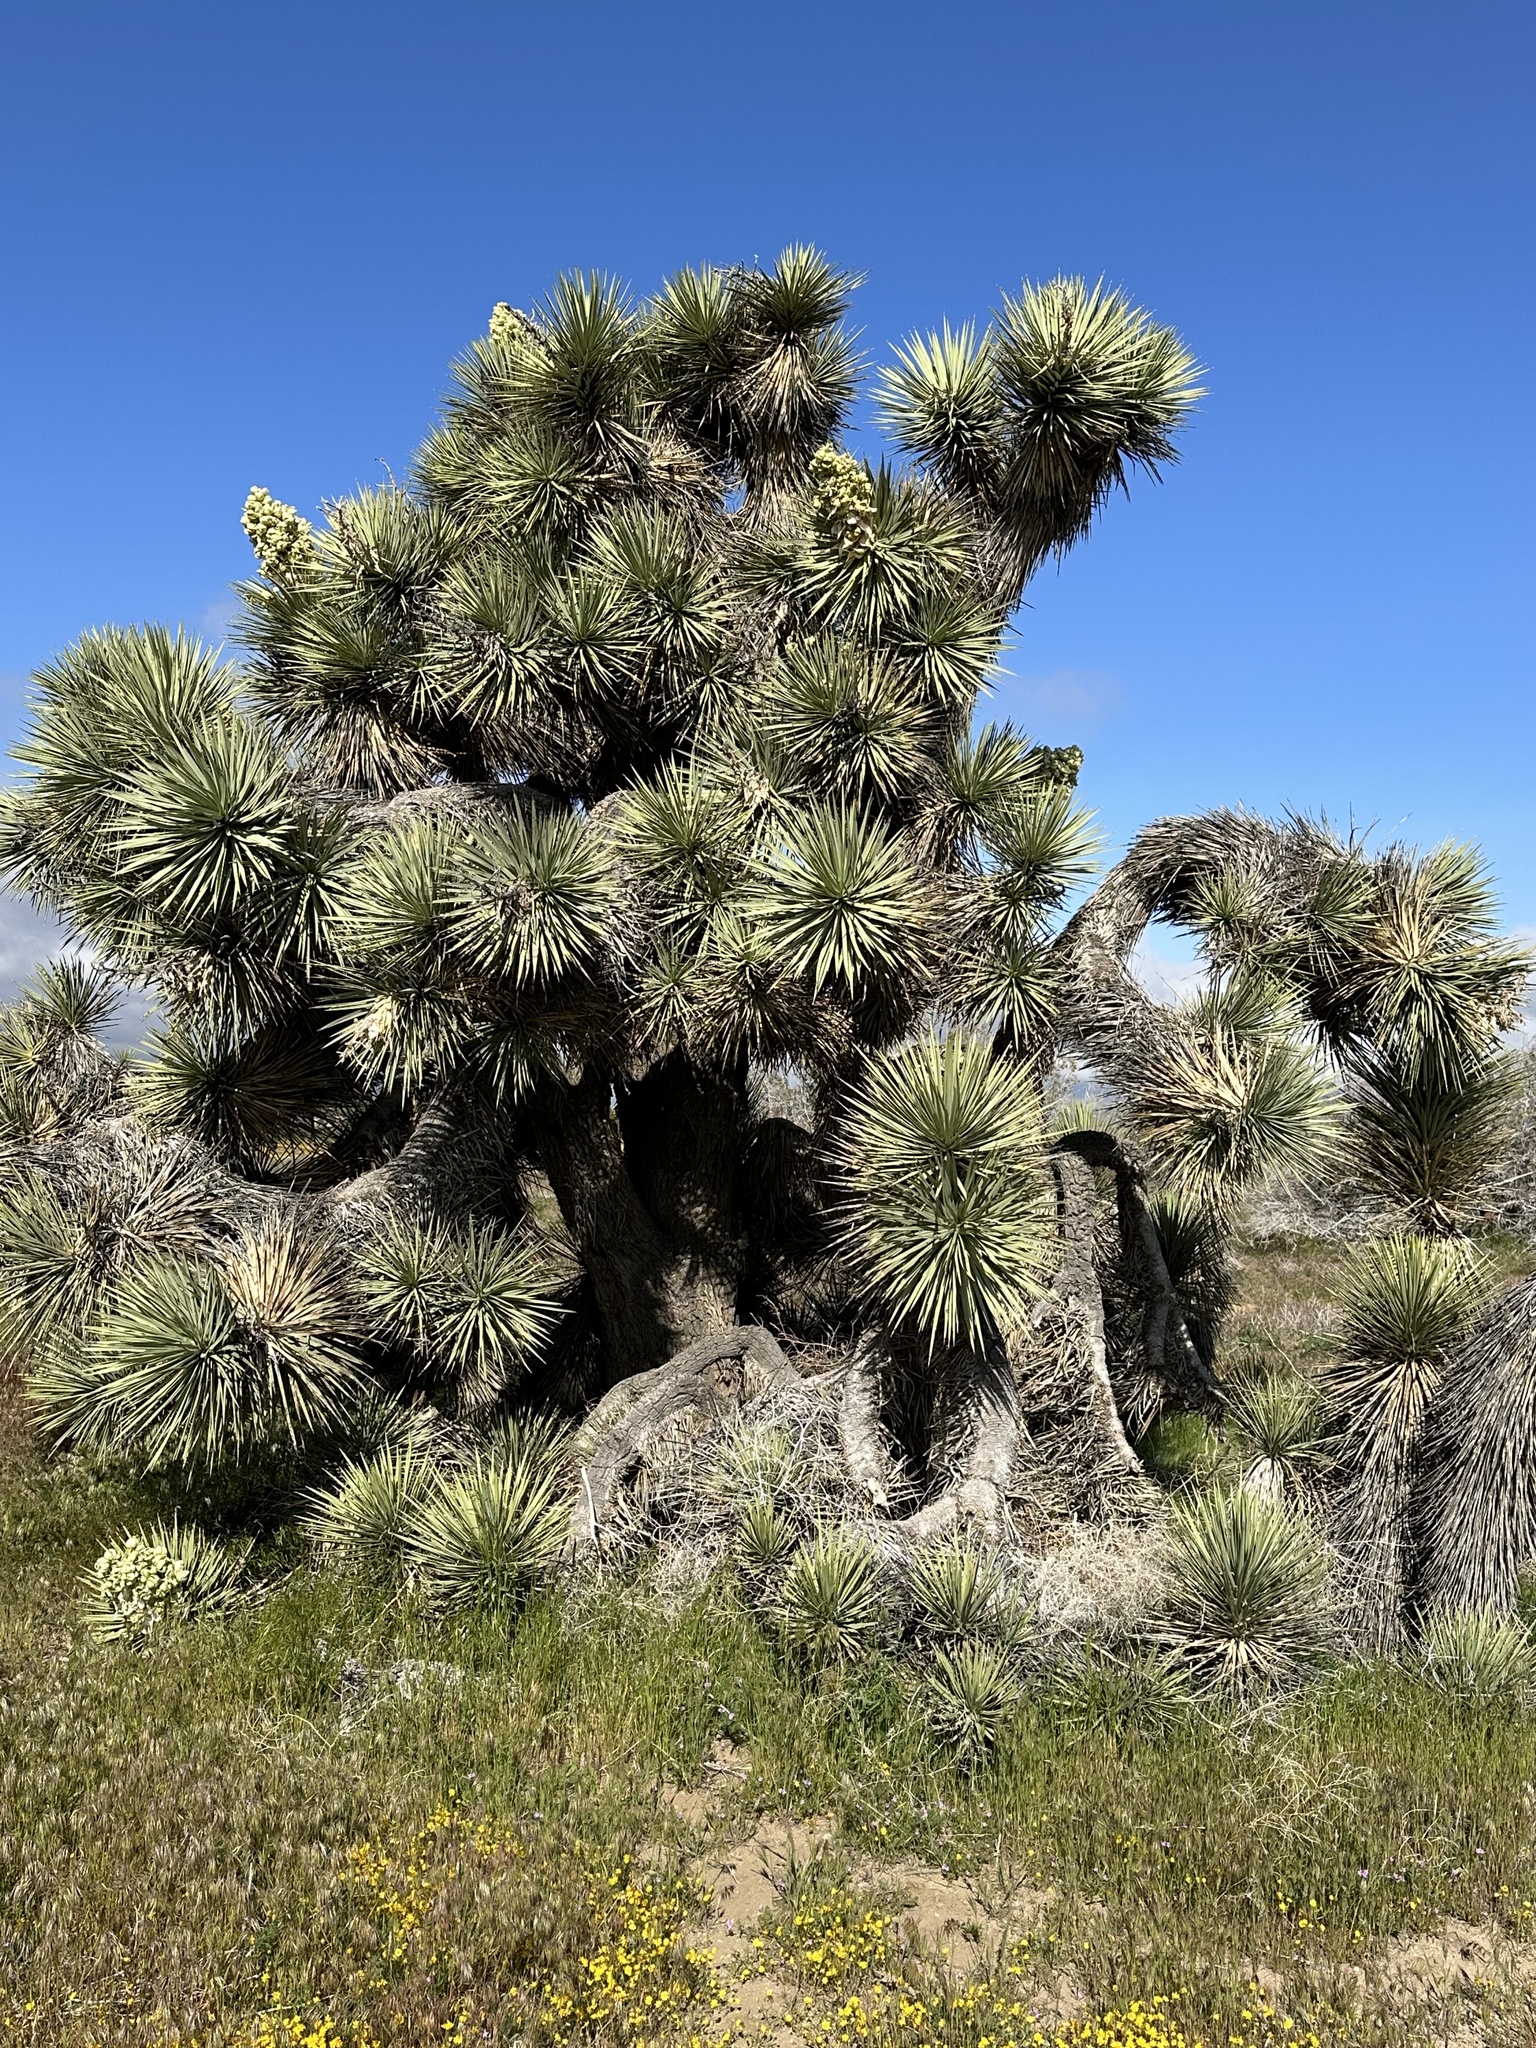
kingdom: Plantae
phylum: Tracheophyta
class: Liliopsida
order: Asparagales
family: Asparagaceae
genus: Yucca
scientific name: Yucca brevifolia
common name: Joshua tree
